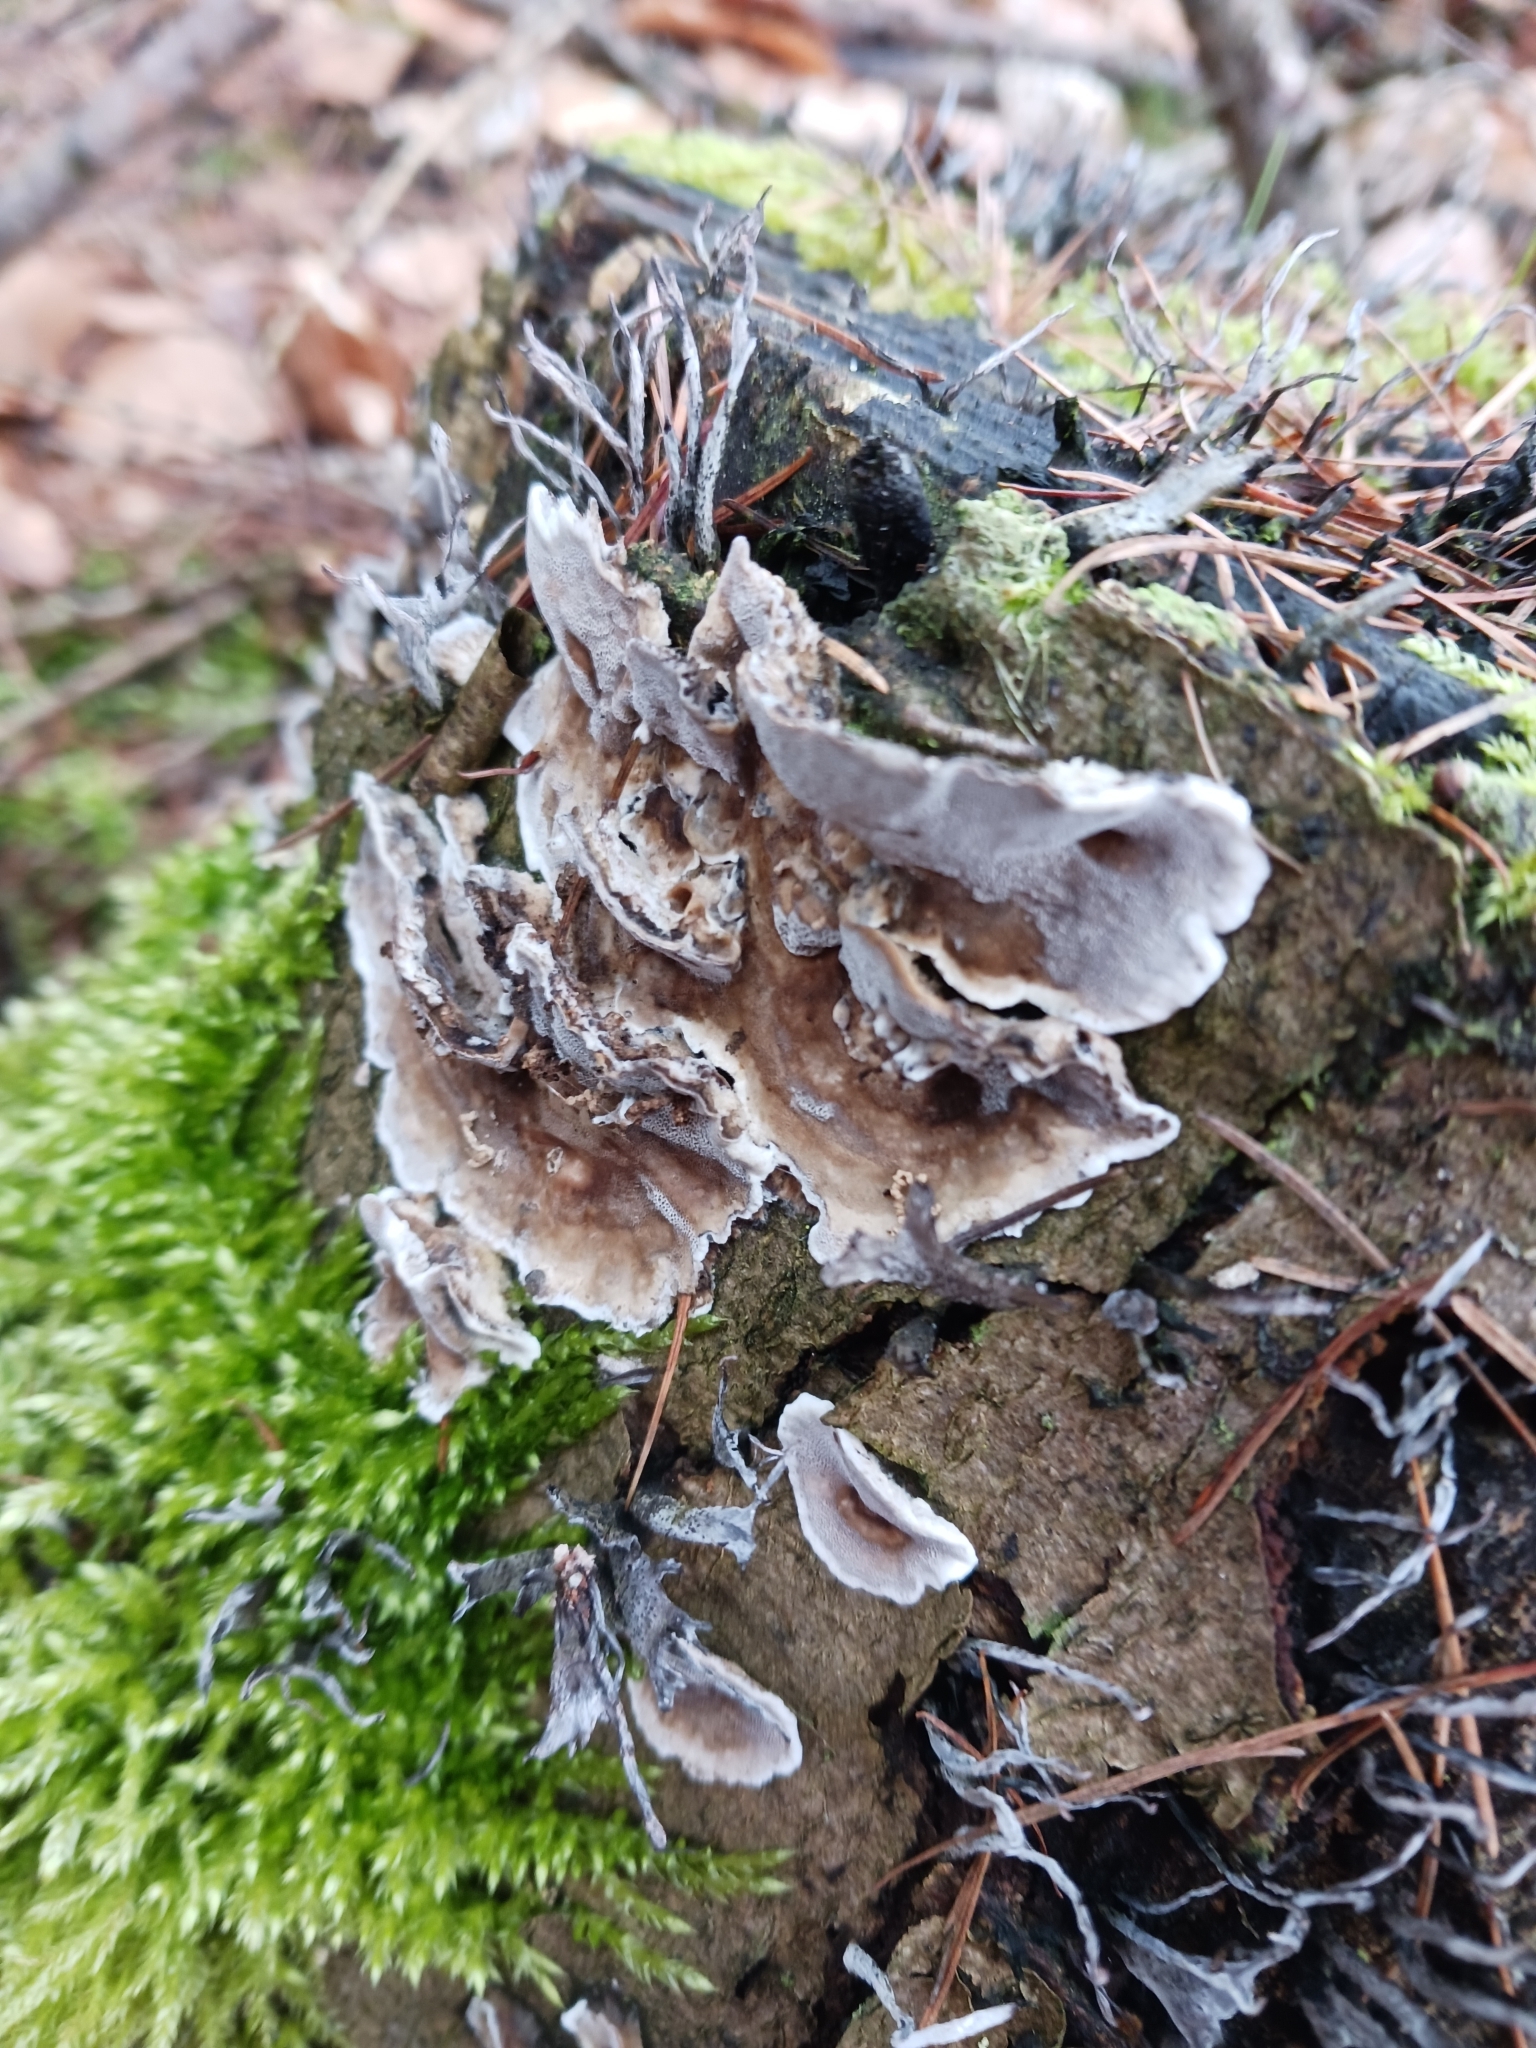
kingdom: Fungi
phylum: Basidiomycota
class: Agaricomycetes
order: Polyporales
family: Phanerochaetaceae
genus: Bjerkandera
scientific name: Bjerkandera adusta
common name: Smoky bracket
